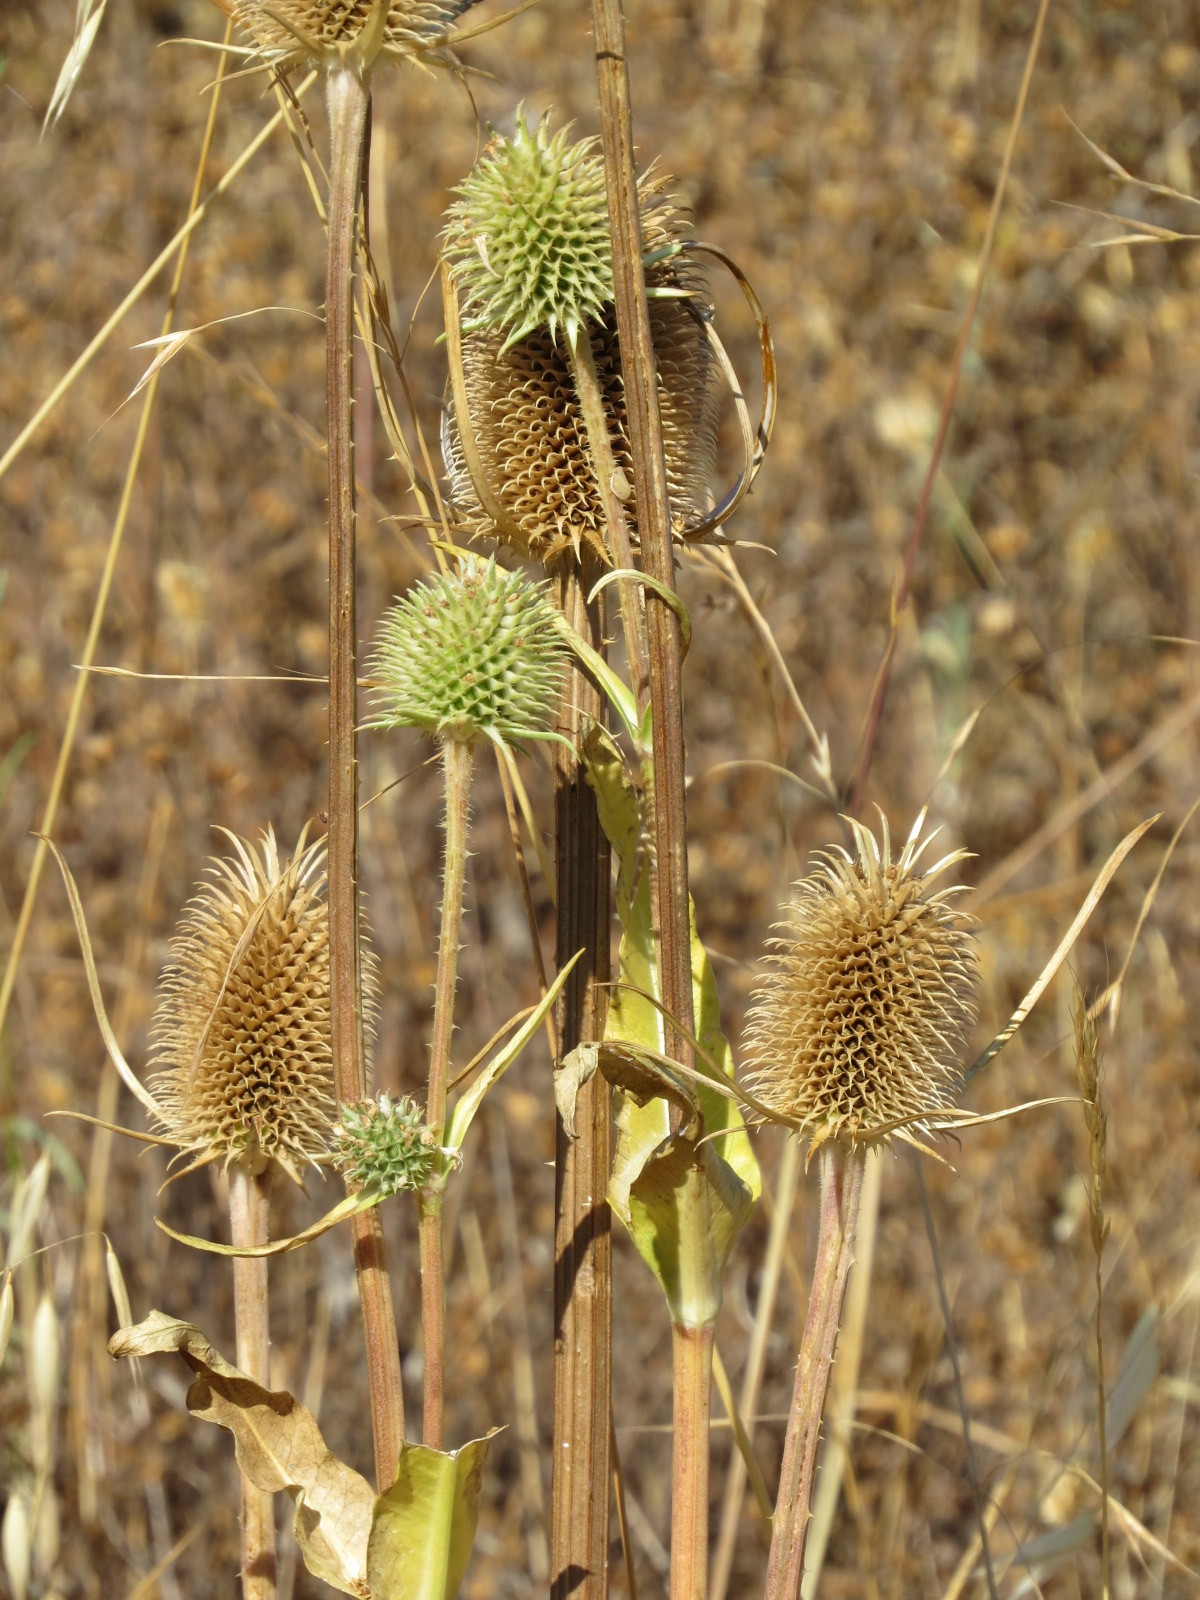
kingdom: Plantae
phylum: Tracheophyta
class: Magnoliopsida
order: Dipsacales
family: Caprifoliaceae
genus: Dipsacus
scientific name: Dipsacus sativus
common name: Fuller's teasel
